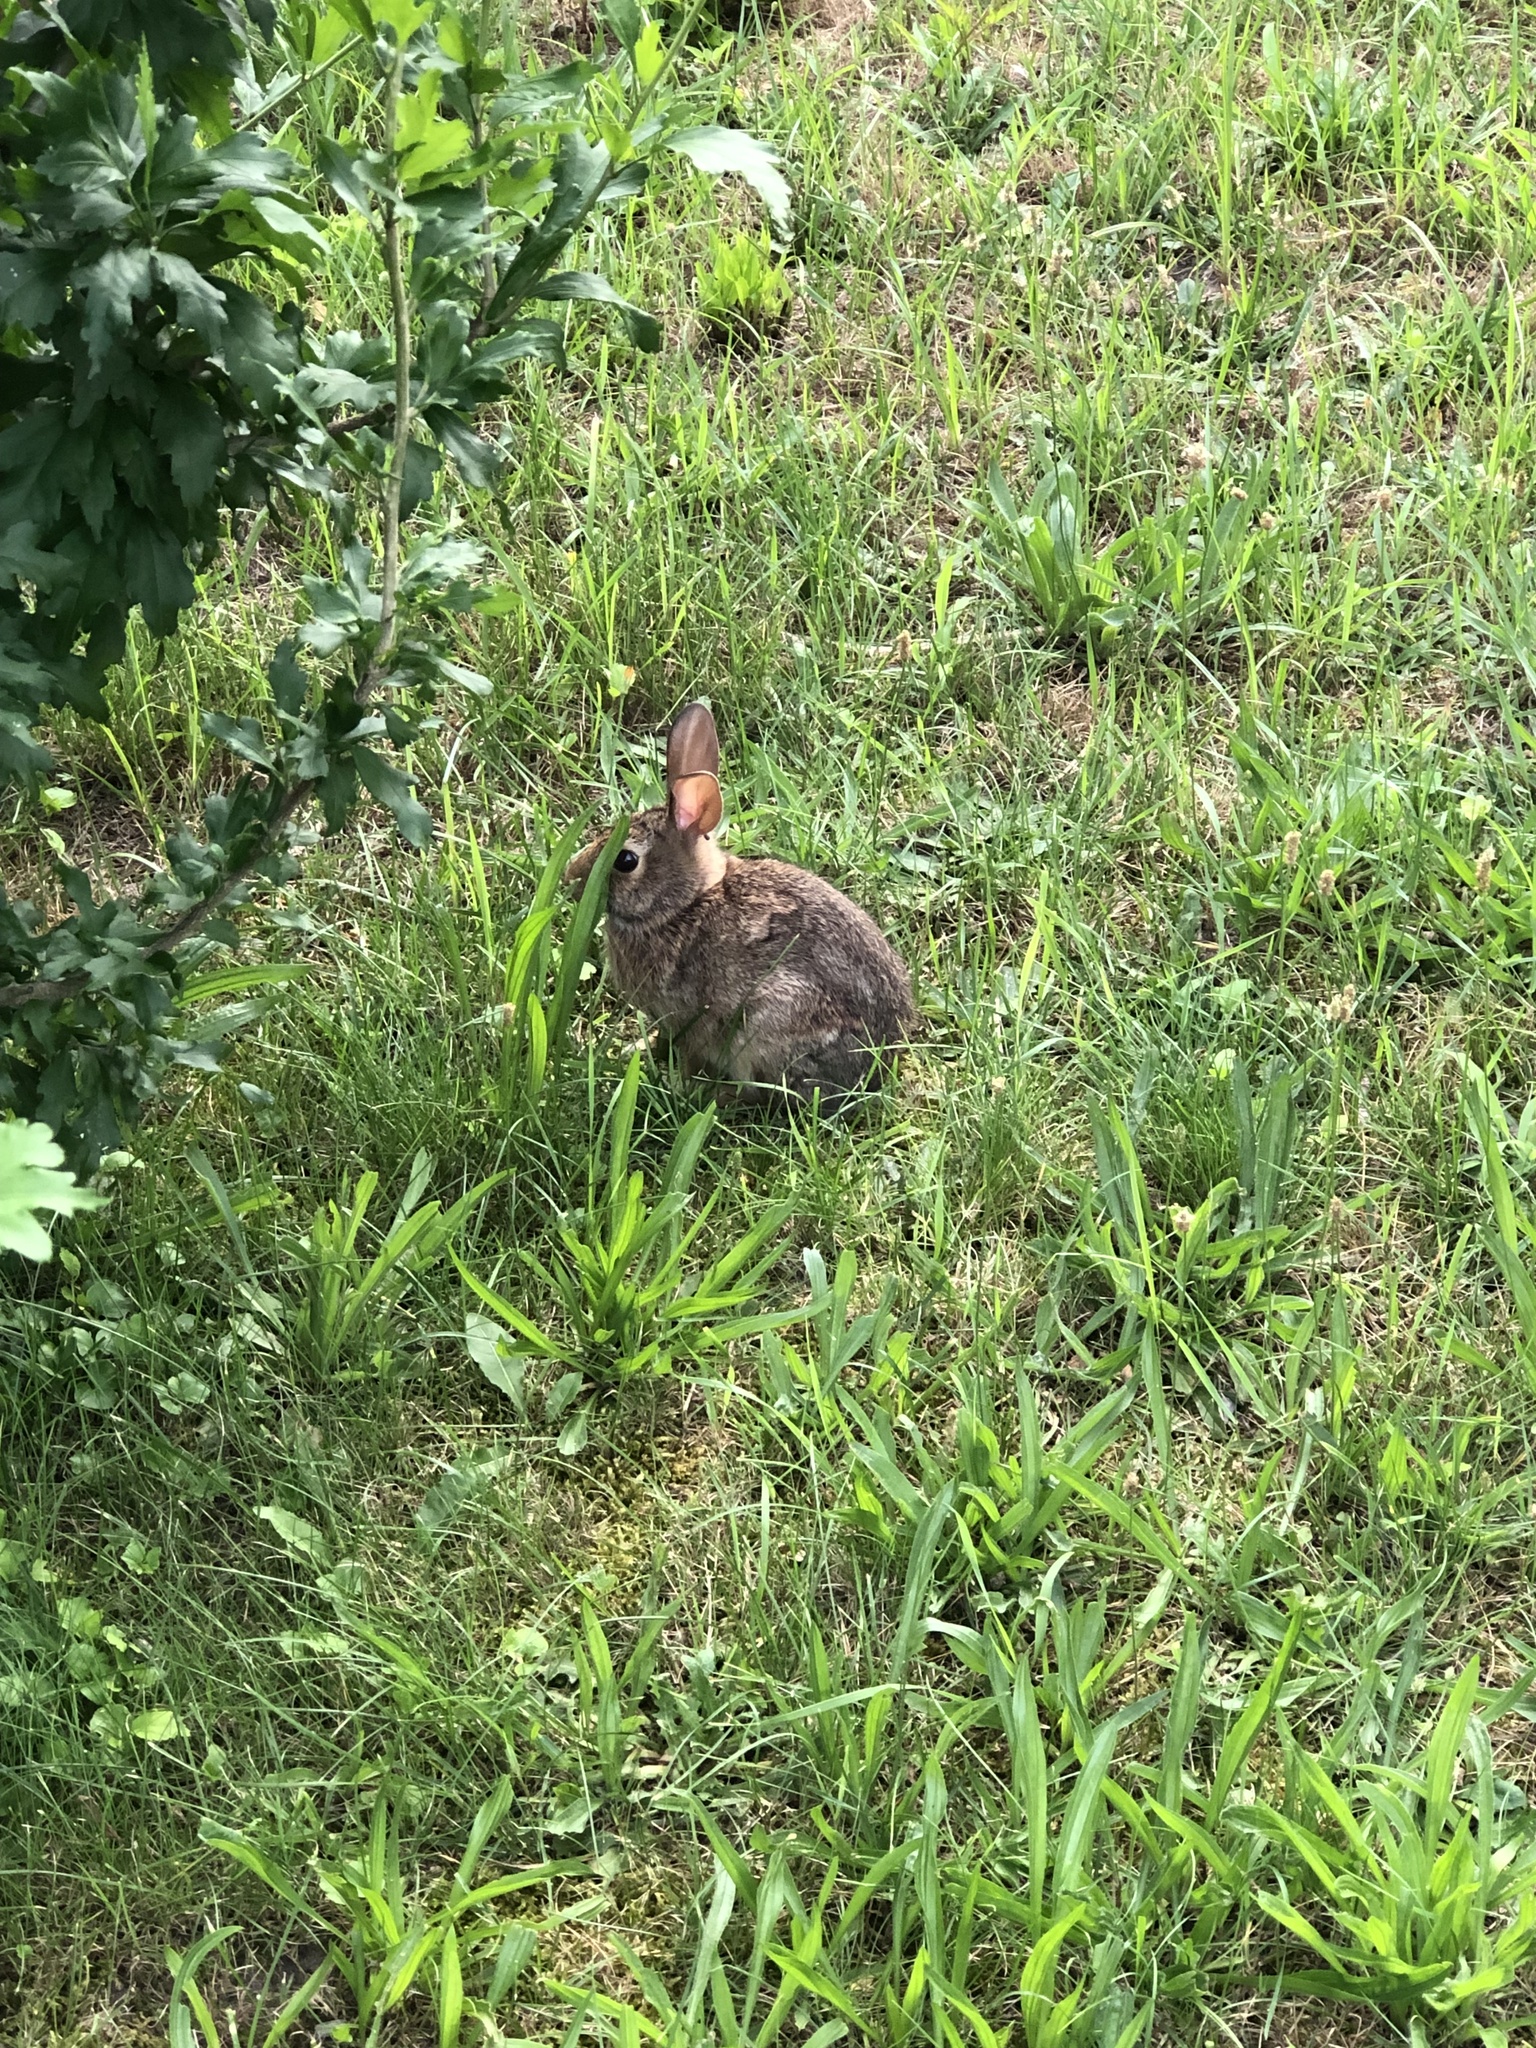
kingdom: Animalia
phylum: Chordata
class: Mammalia
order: Lagomorpha
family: Leporidae
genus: Sylvilagus
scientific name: Sylvilagus floridanus
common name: Eastern cottontail
